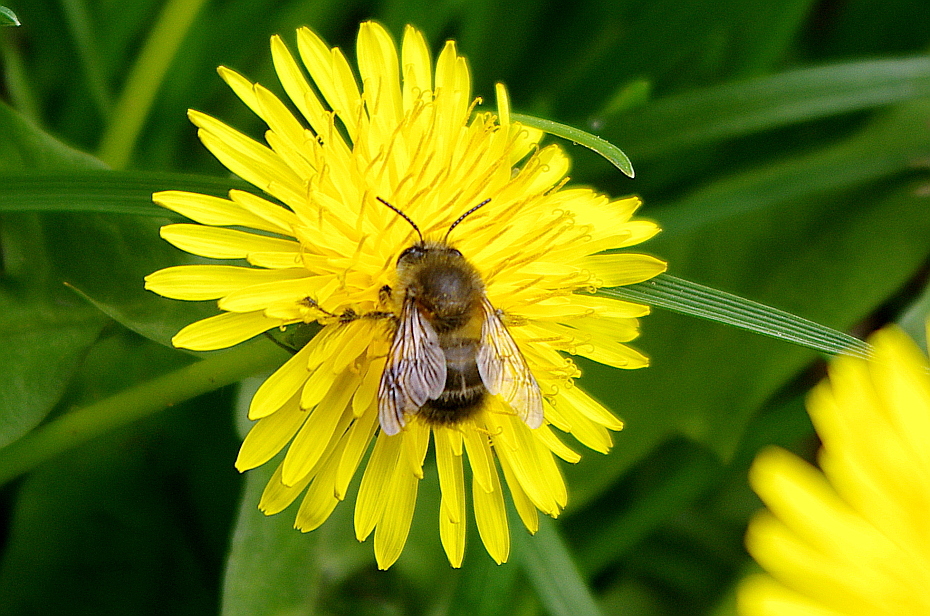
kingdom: Animalia
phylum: Arthropoda
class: Insecta
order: Hymenoptera
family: Apidae
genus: Anthophora
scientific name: Anthophora plumipes
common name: Hairy-footed flower bee
